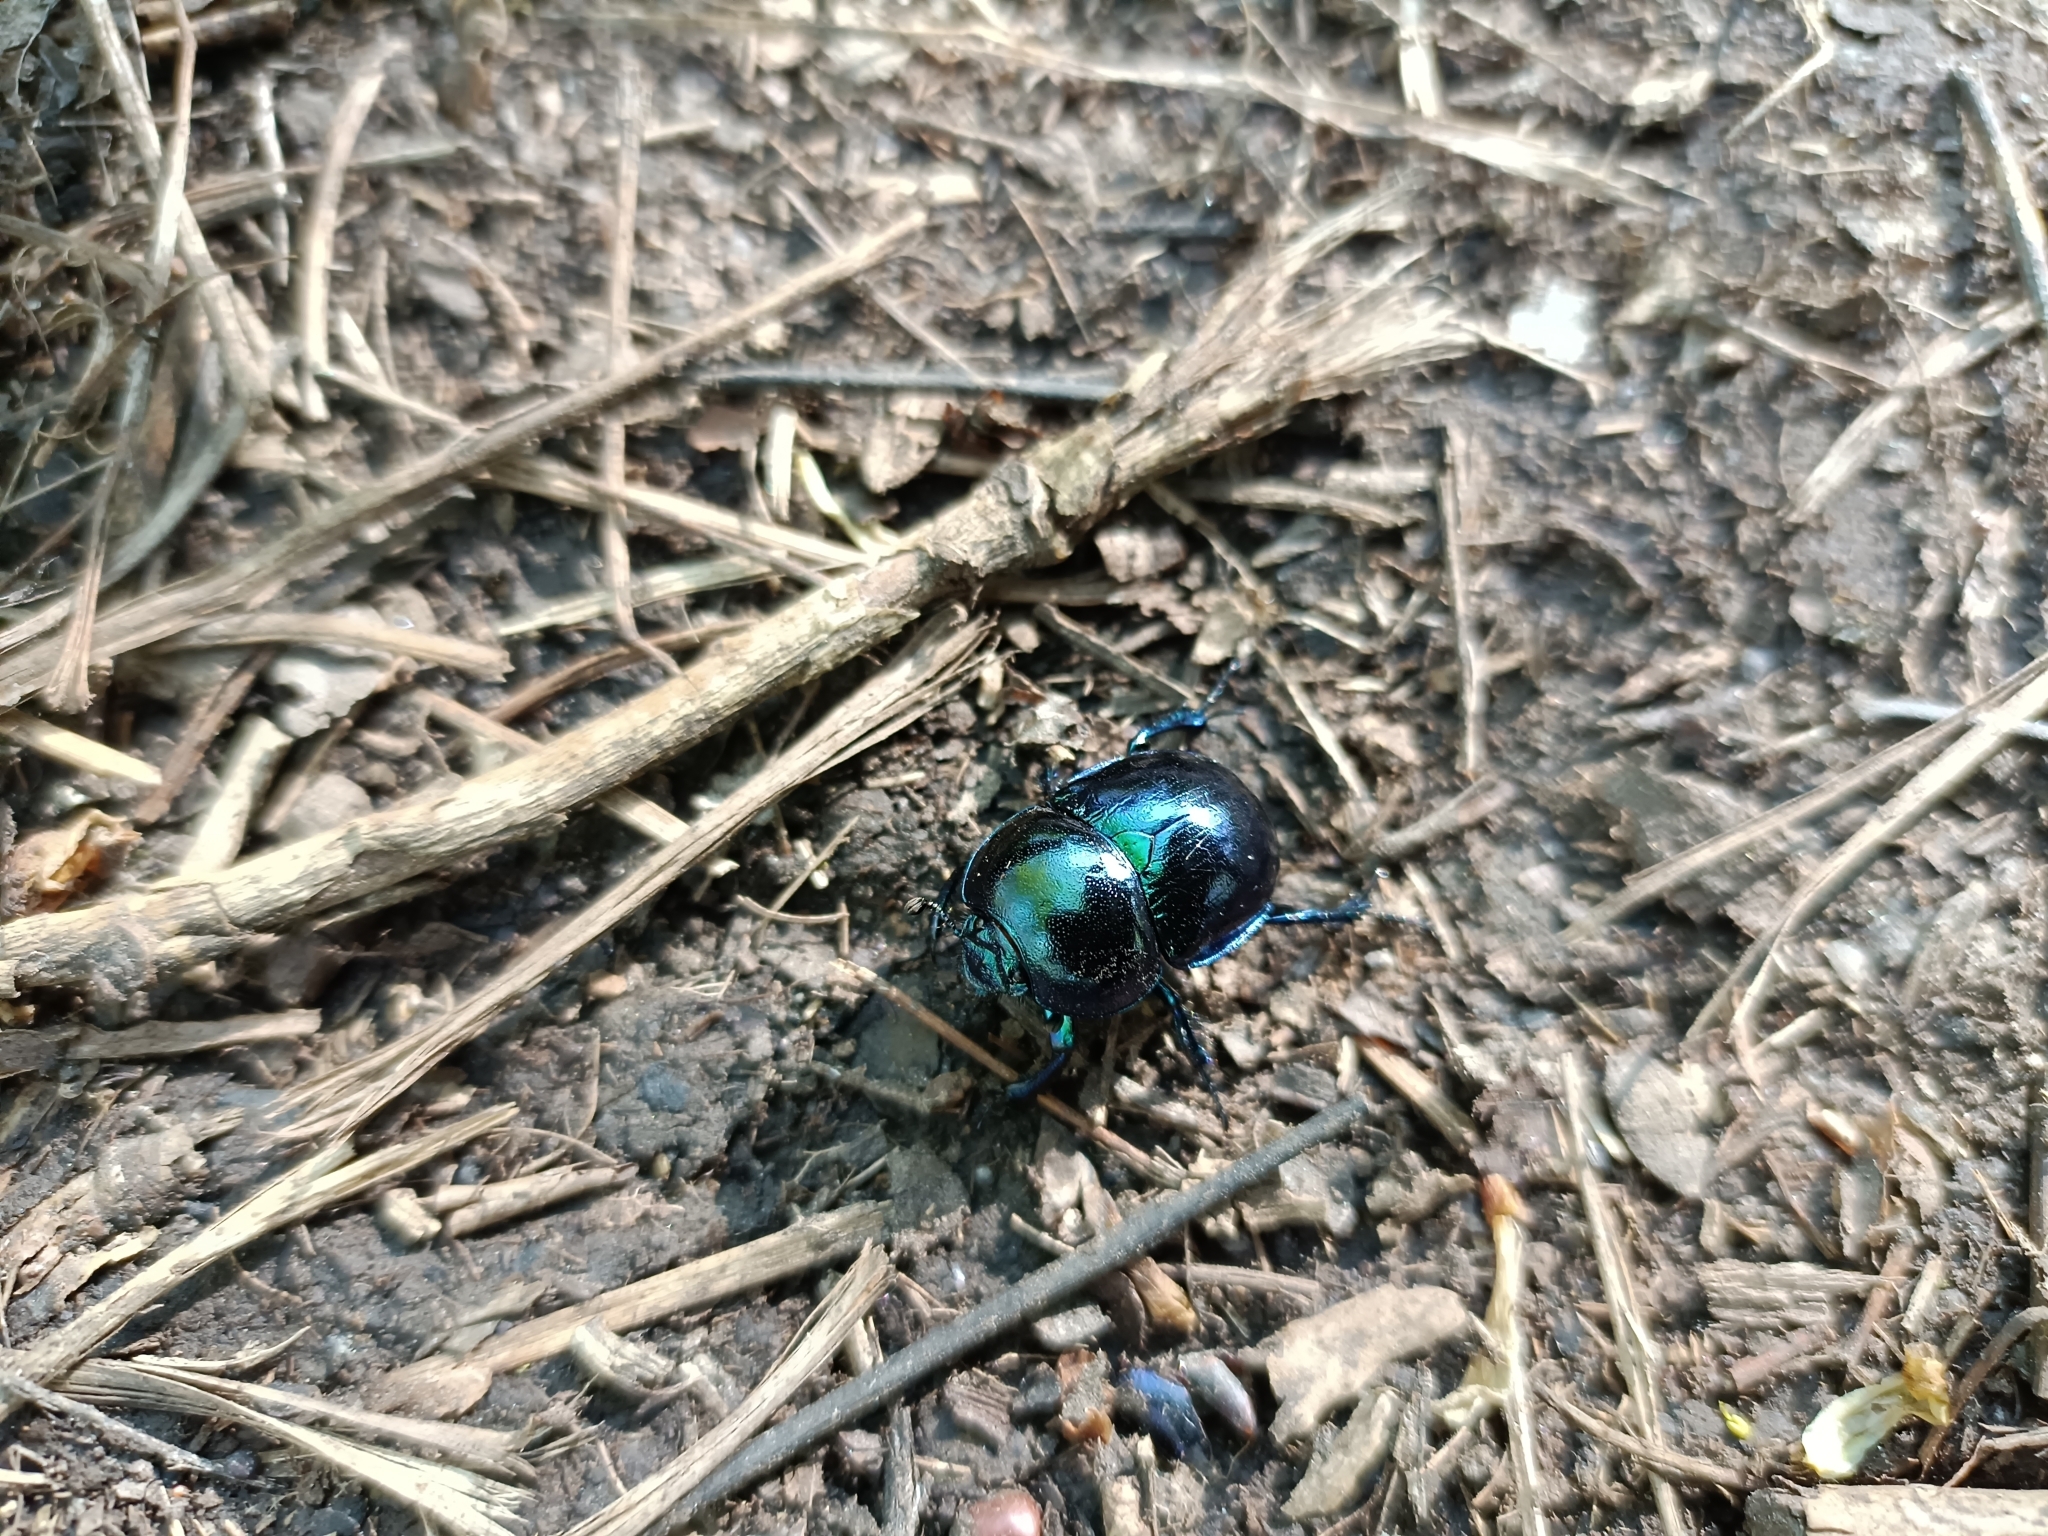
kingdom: Animalia
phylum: Arthropoda
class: Insecta
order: Coleoptera
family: Geotrupidae
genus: Trypocopris
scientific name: Trypocopris vernalis
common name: Spring dumbledor
